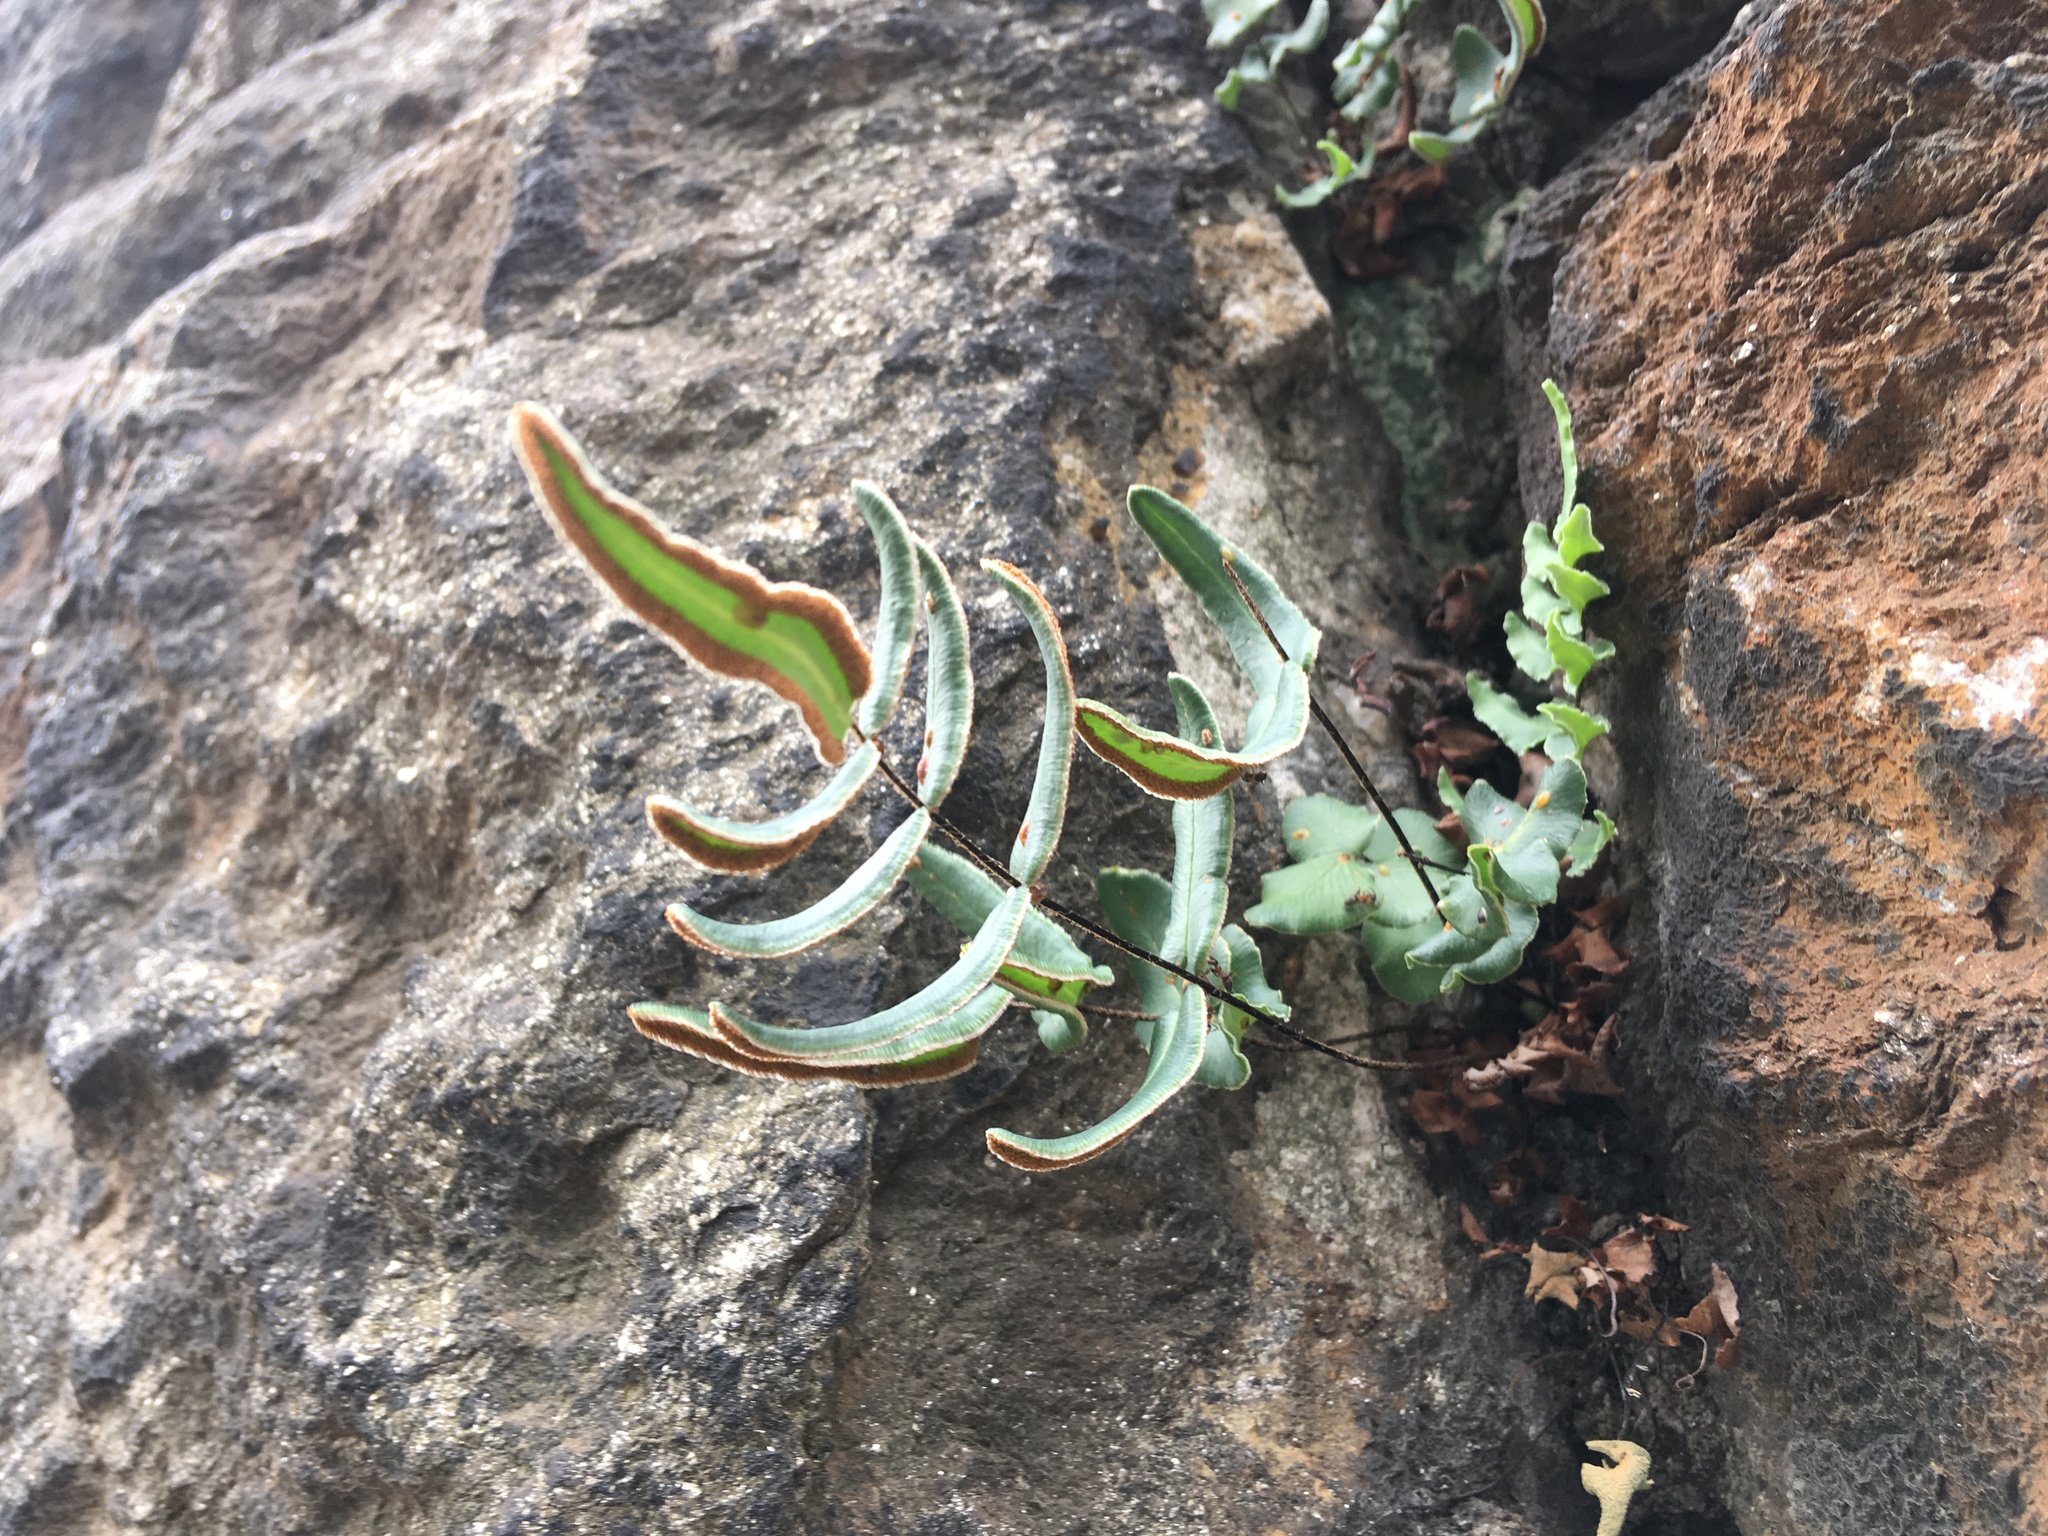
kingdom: Plantae
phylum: Tracheophyta
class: Polypodiopsida
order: Polypodiales
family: Pteridaceae
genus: Pellaea
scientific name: Pellaea atropurpurea
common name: Hairy cliffbrake
